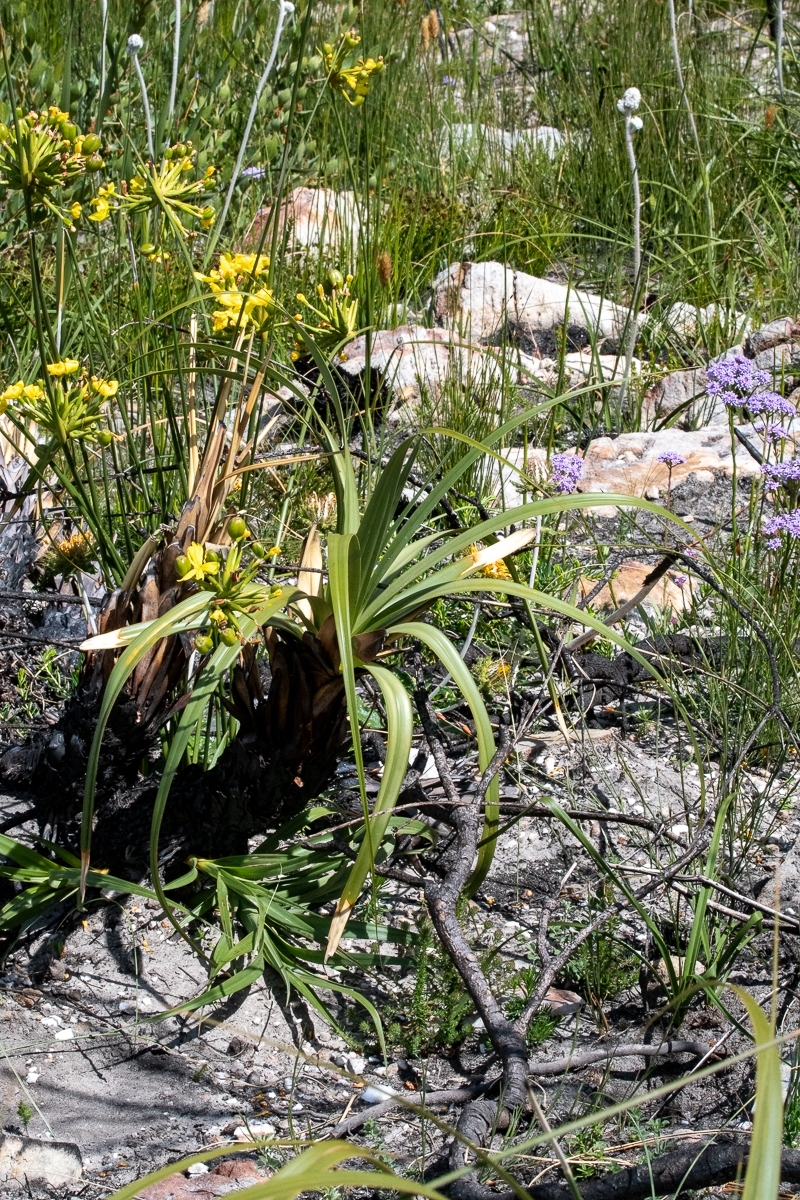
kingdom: Plantae
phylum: Tracheophyta
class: Liliopsida
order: Poales
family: Cyperaceae
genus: Tetraria
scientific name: Tetraria thermalis
